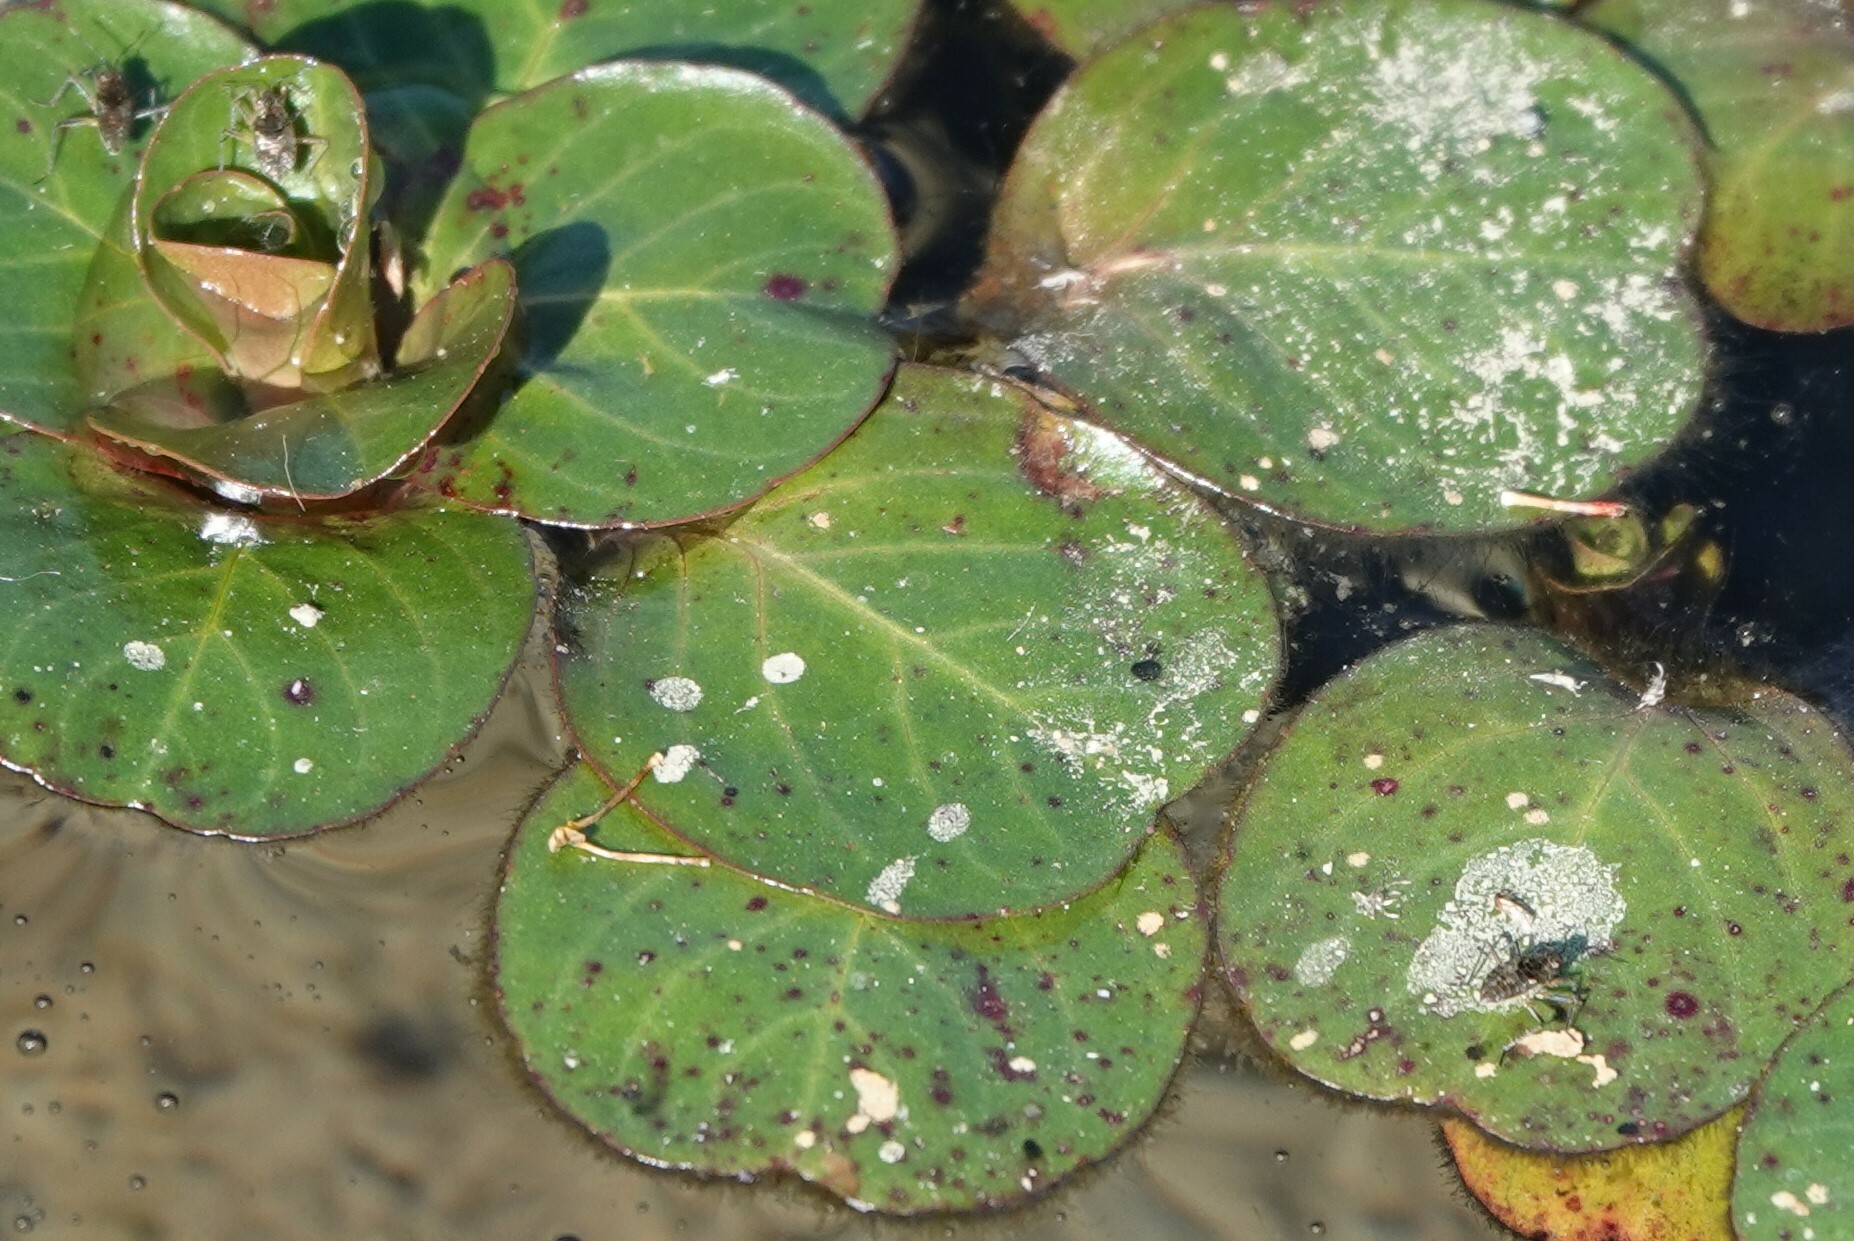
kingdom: Animalia
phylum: Arthropoda
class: Insecta
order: Hemiptera
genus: Kirkaldya
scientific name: Kirkaldya
